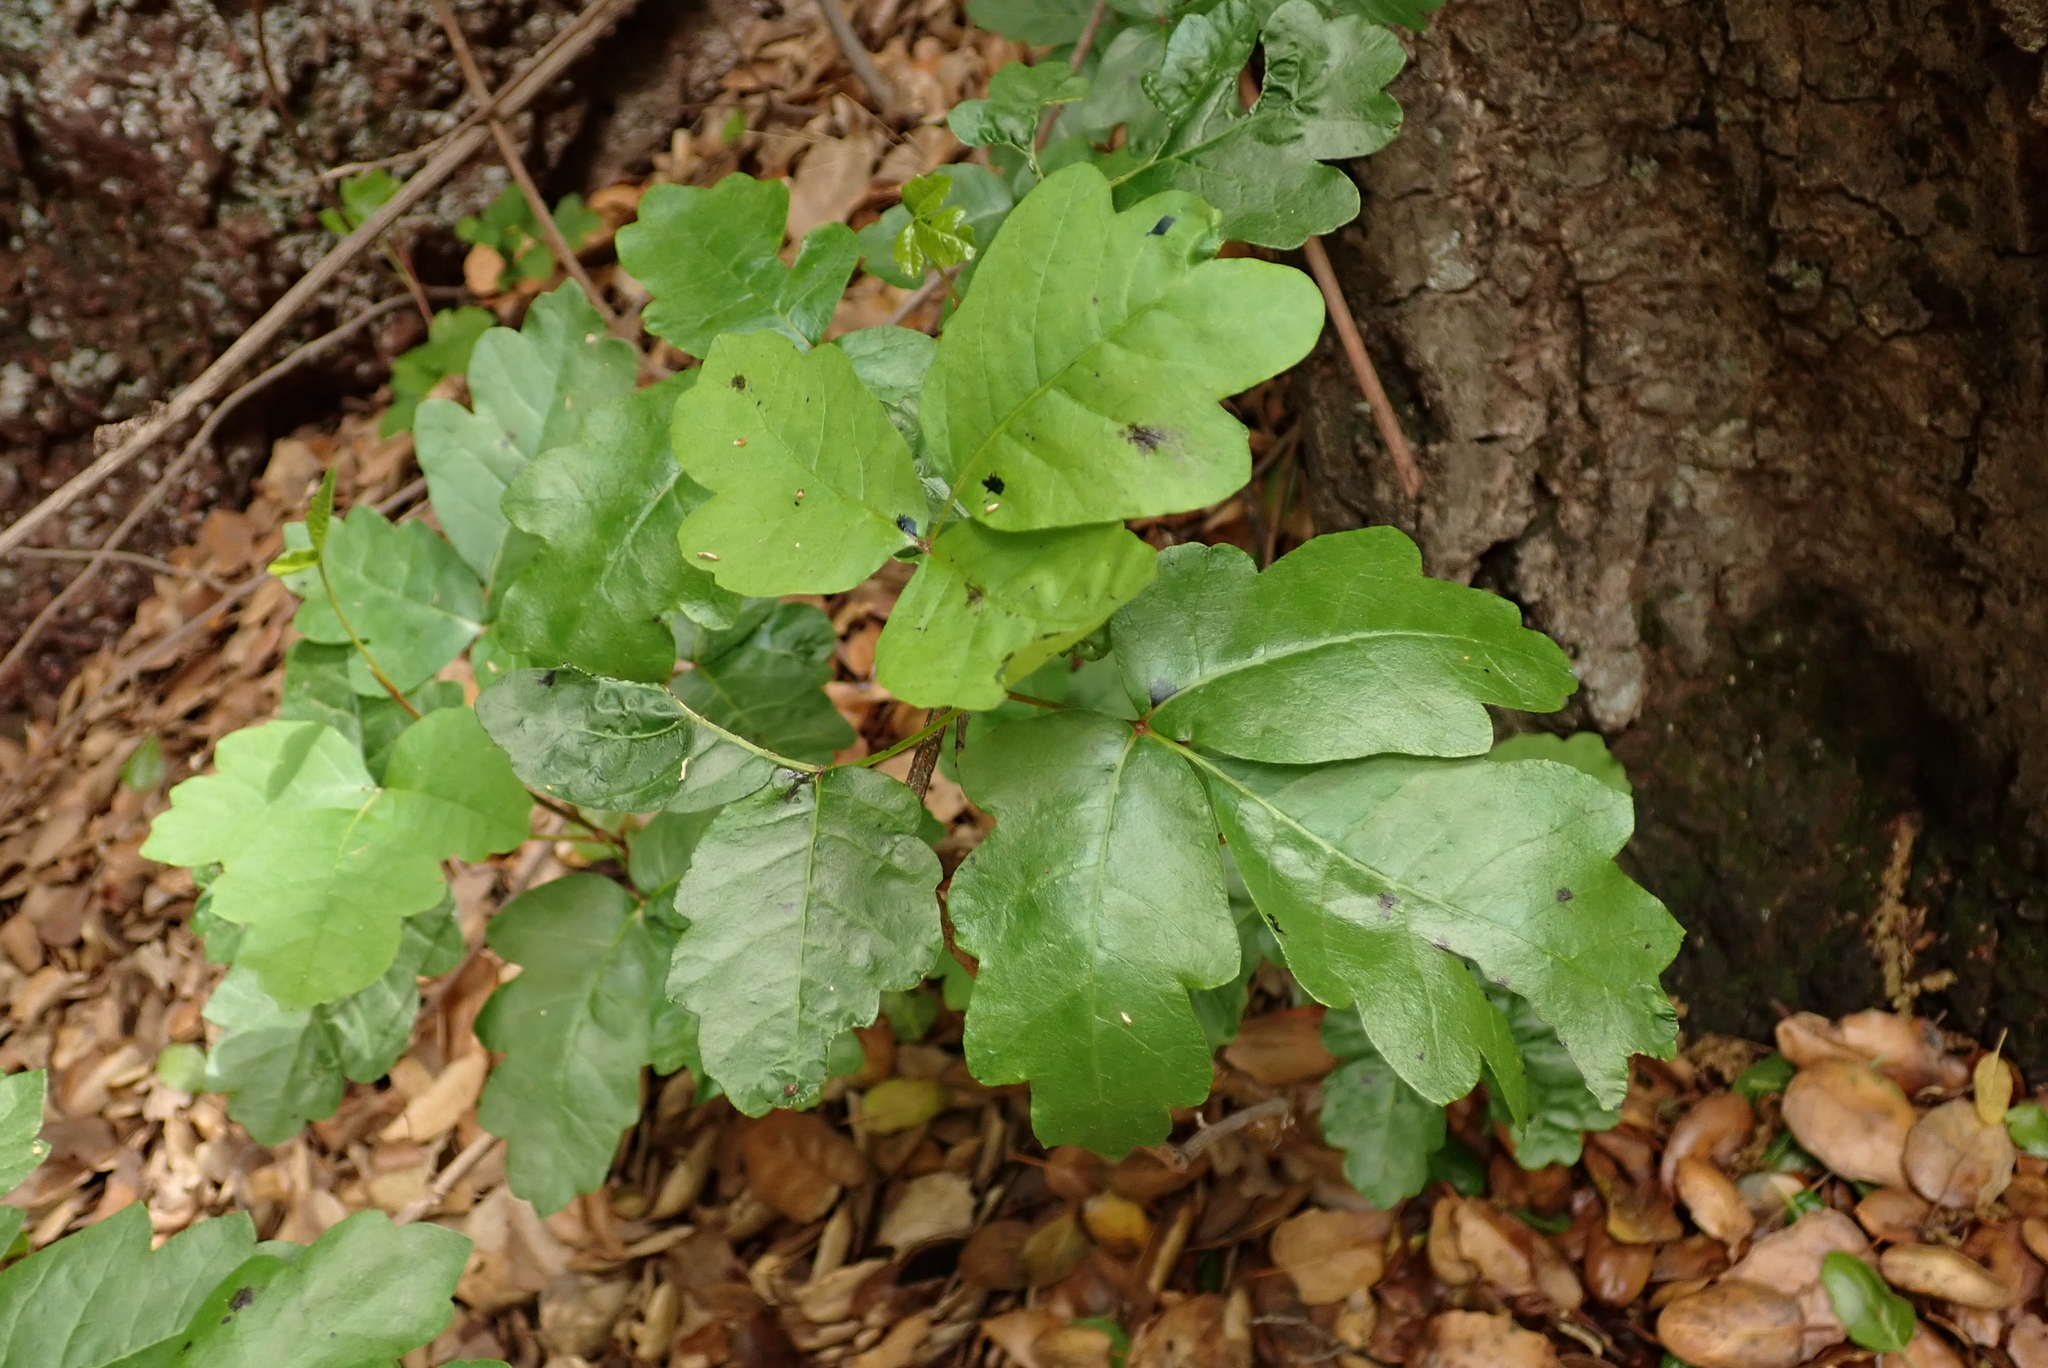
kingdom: Plantae
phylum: Tracheophyta
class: Magnoliopsida
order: Sapindales
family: Anacardiaceae
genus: Toxicodendron
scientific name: Toxicodendron diversilobum
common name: Pacific poison-oak
